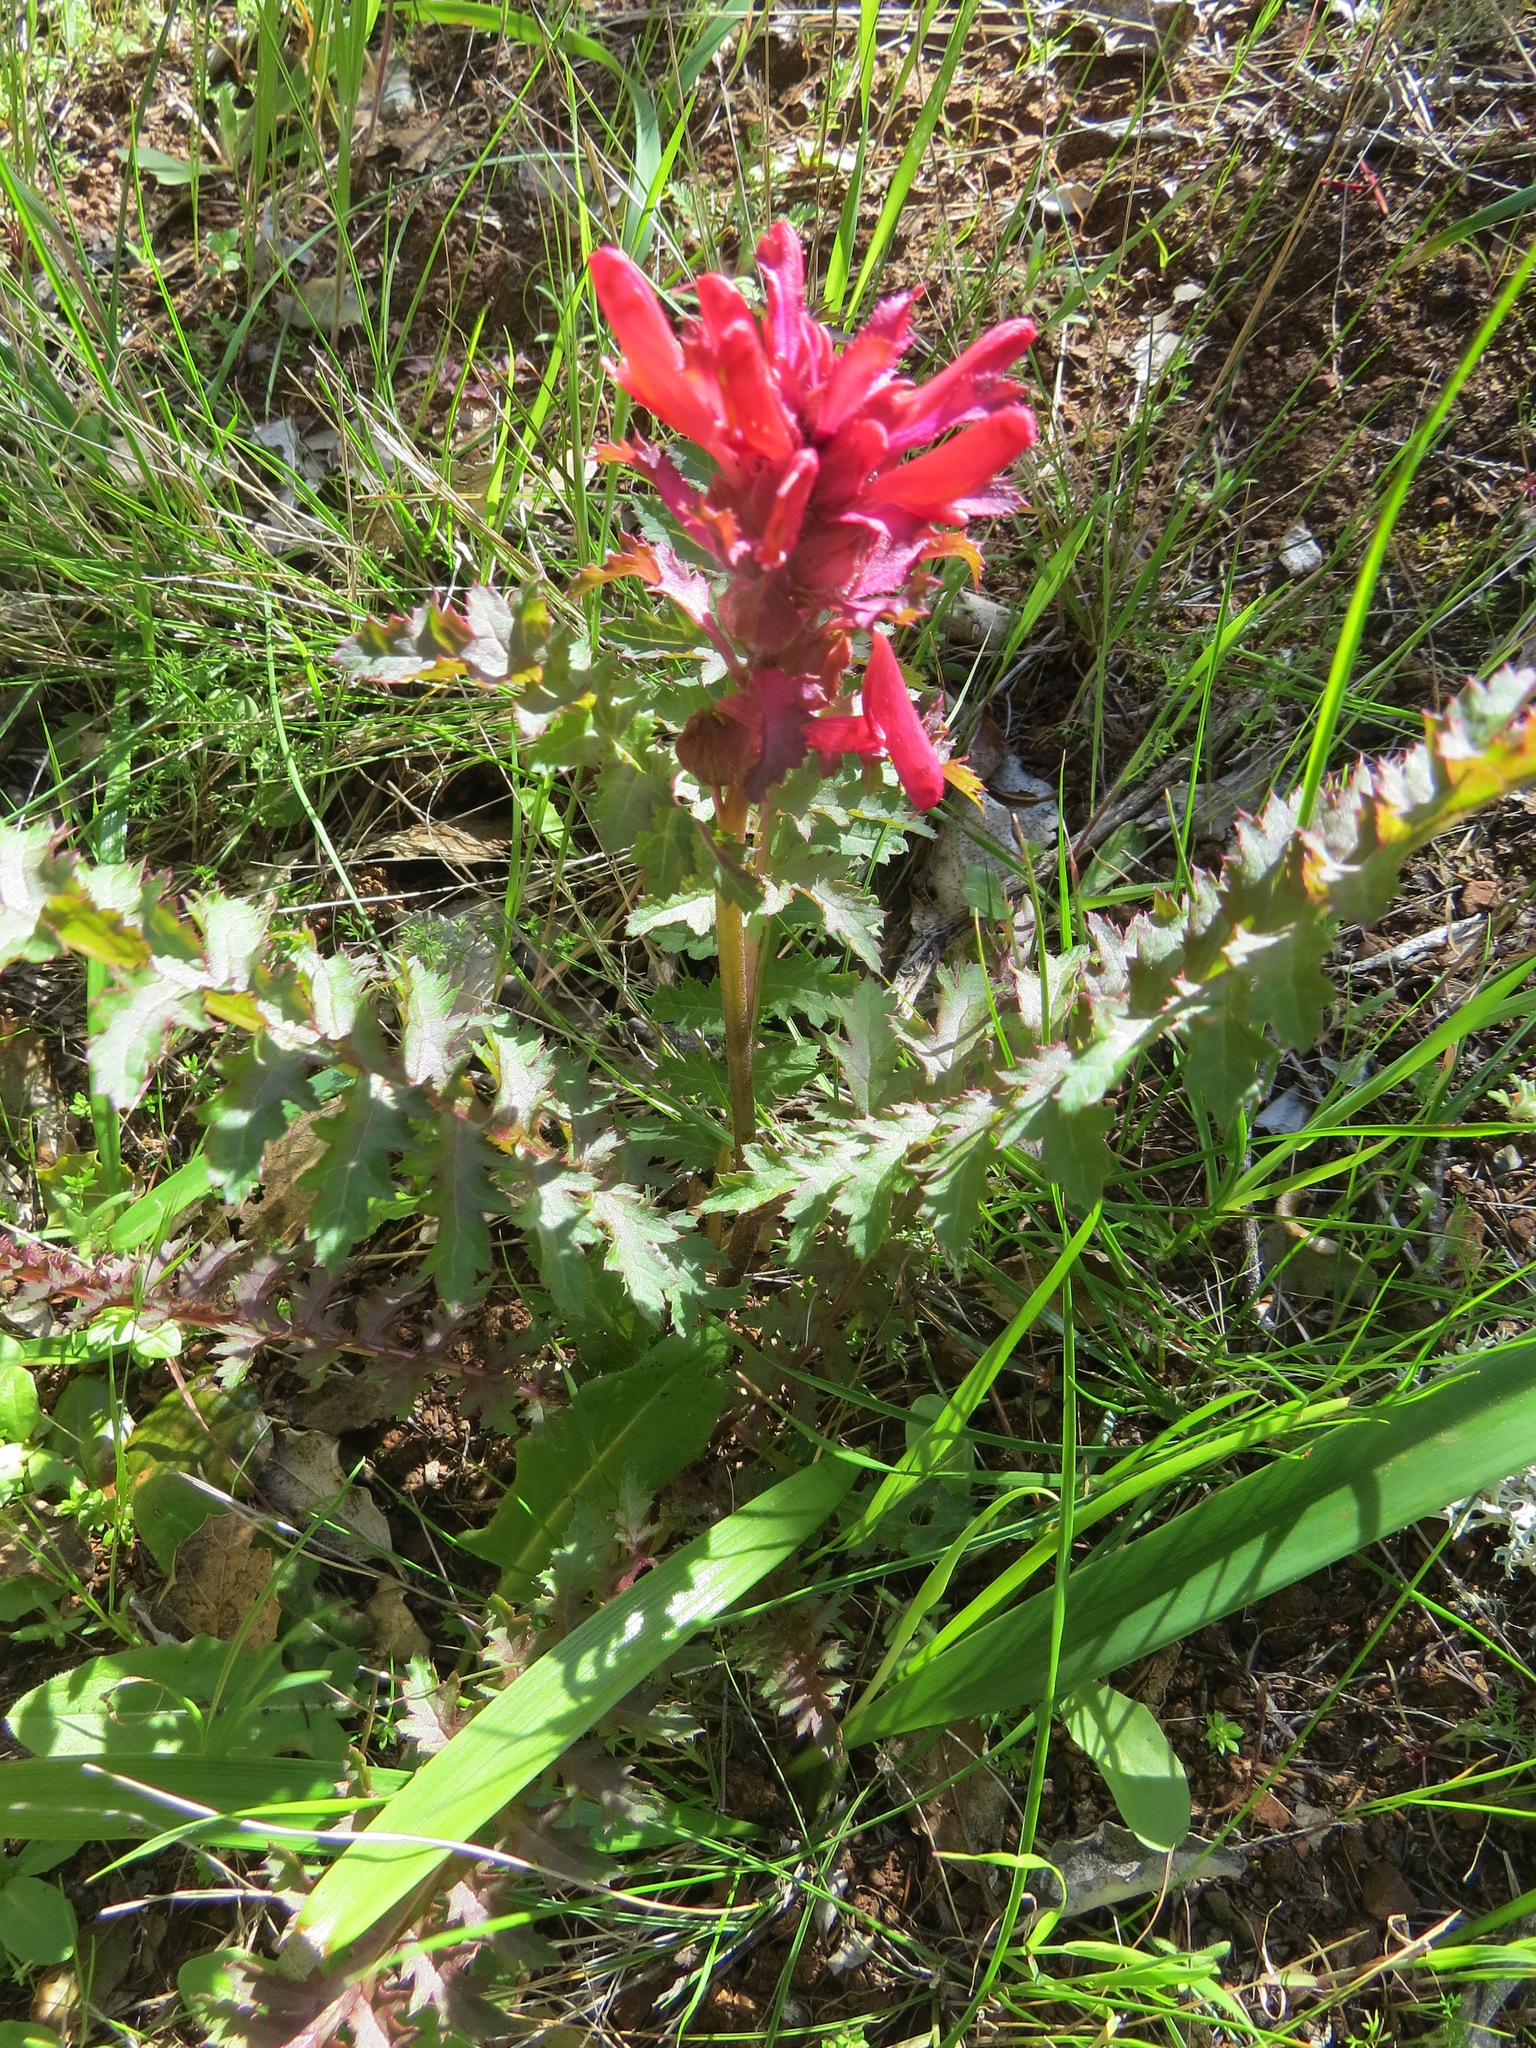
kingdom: Plantae
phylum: Tracheophyta
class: Magnoliopsida
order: Lamiales
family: Orobanchaceae
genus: Pedicularis
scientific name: Pedicularis densiflora
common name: Indian warrior
